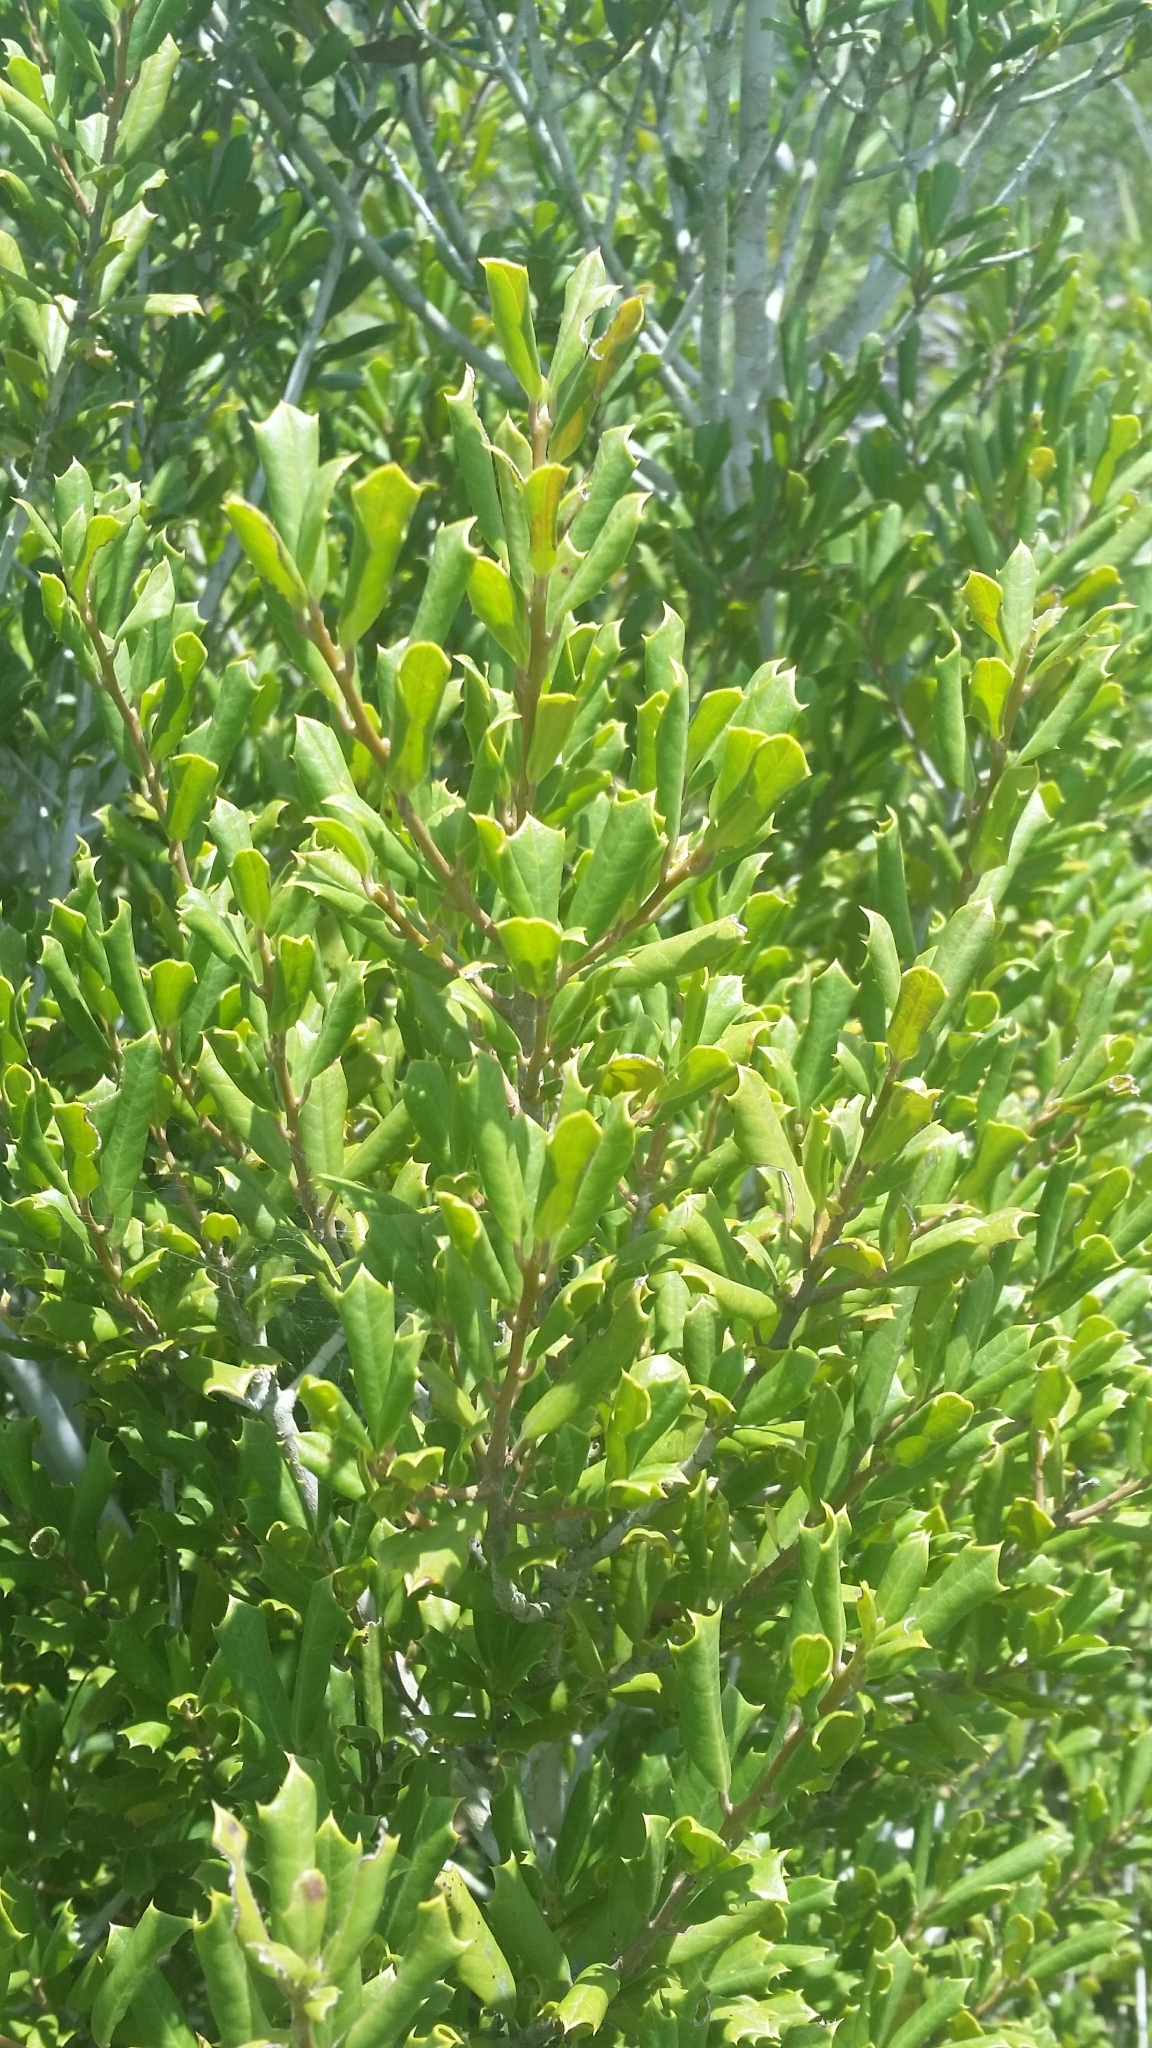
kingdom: Plantae
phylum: Tracheophyta
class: Magnoliopsida
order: Aquifoliales
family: Aquifoliaceae
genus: Ilex
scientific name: Ilex opaca
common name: American holly
